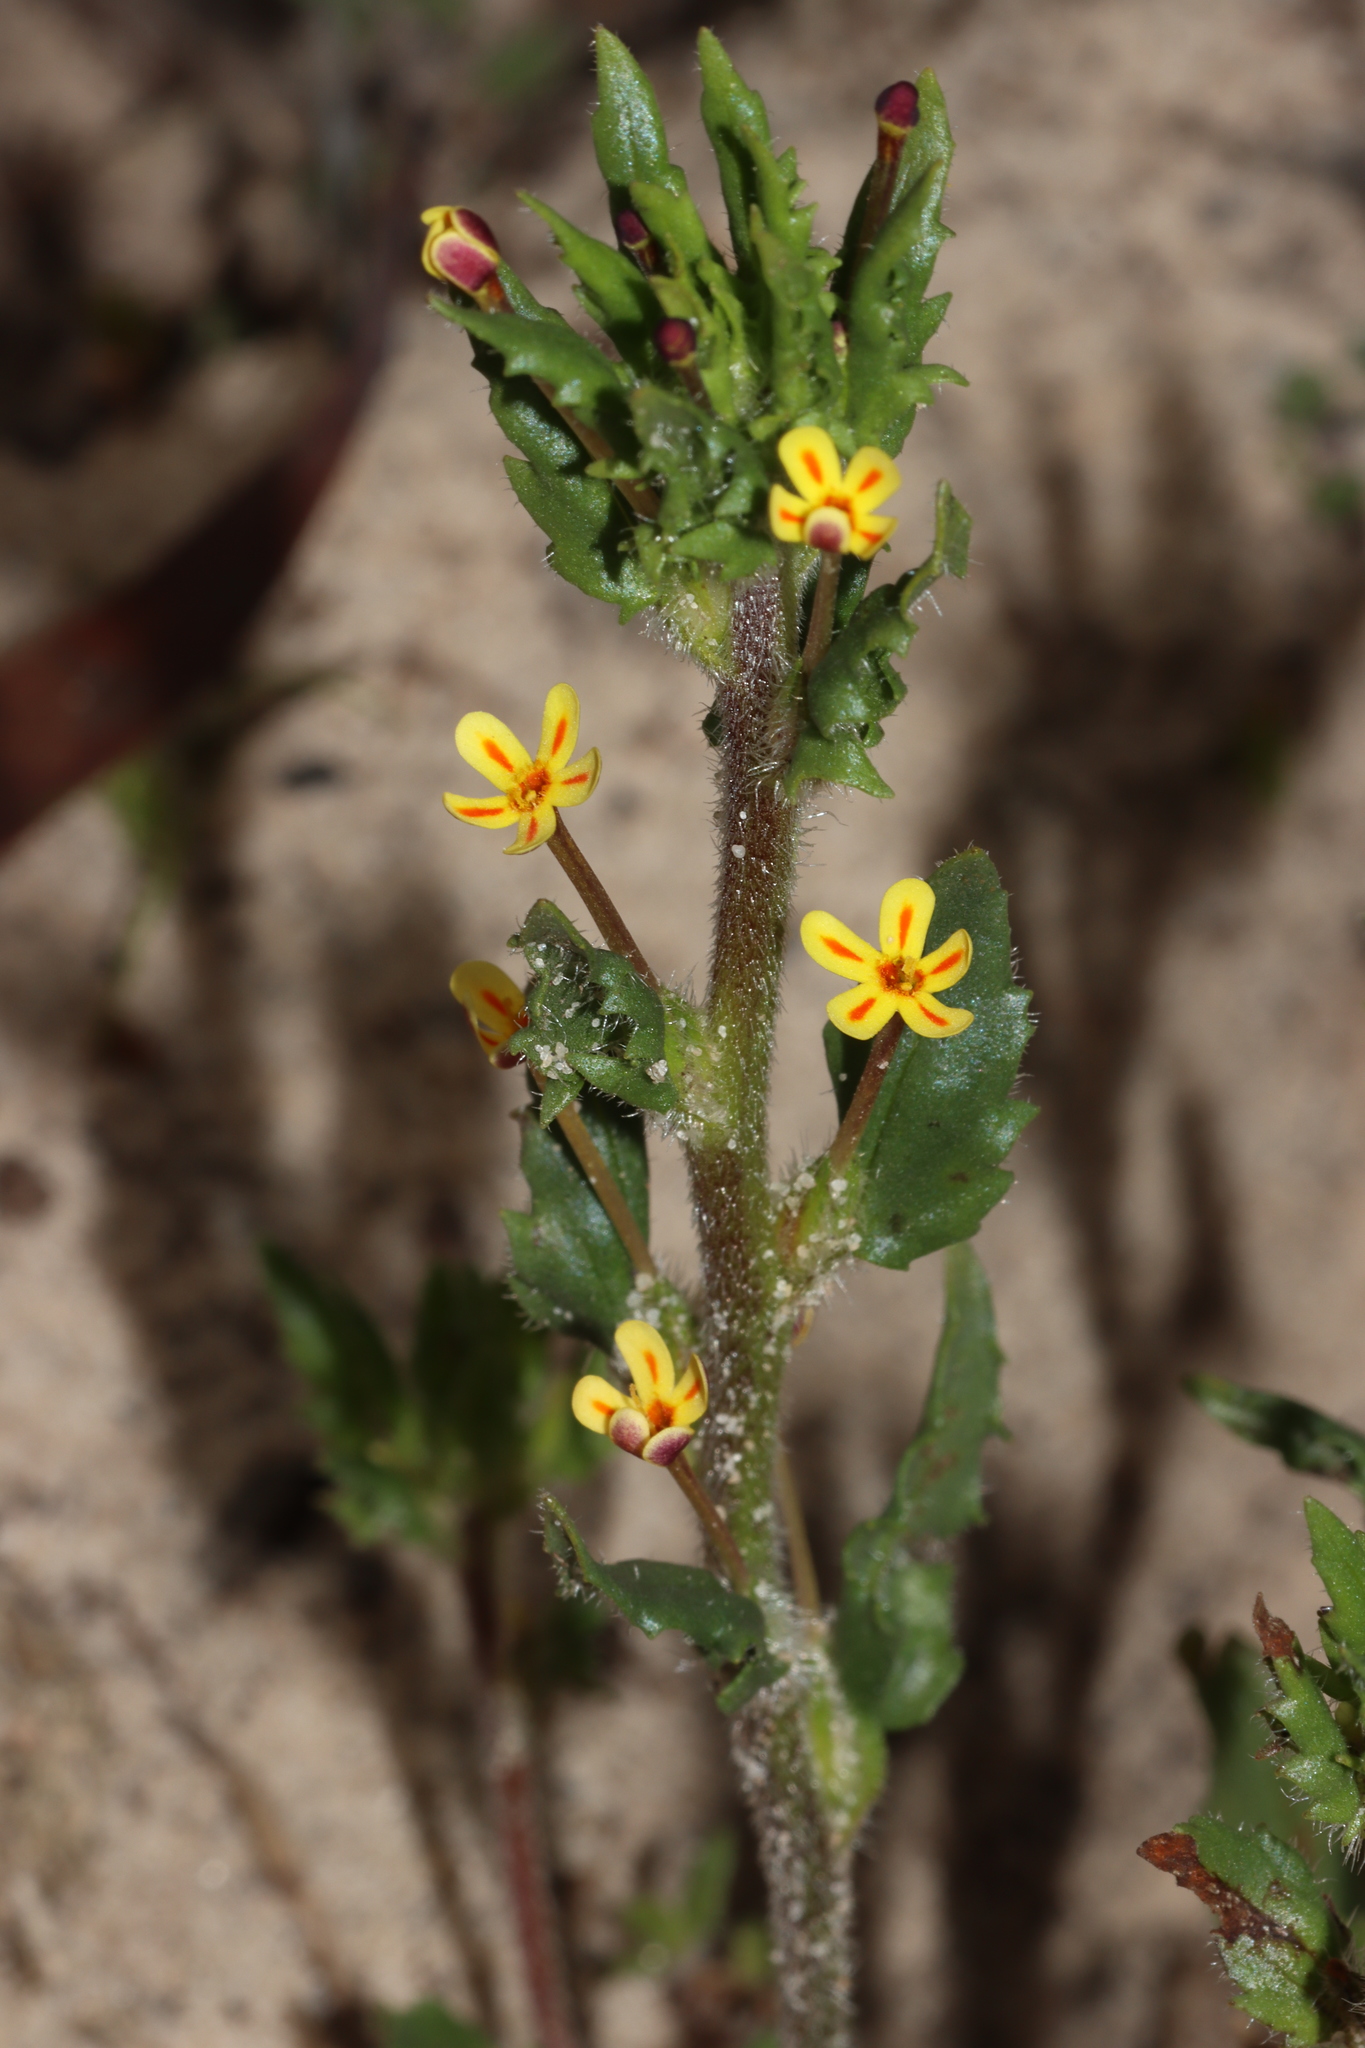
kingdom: Plantae
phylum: Tracheophyta
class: Magnoliopsida
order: Lamiales
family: Scrophulariaceae
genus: Zaluzianskya
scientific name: Zaluzianskya divaricata
